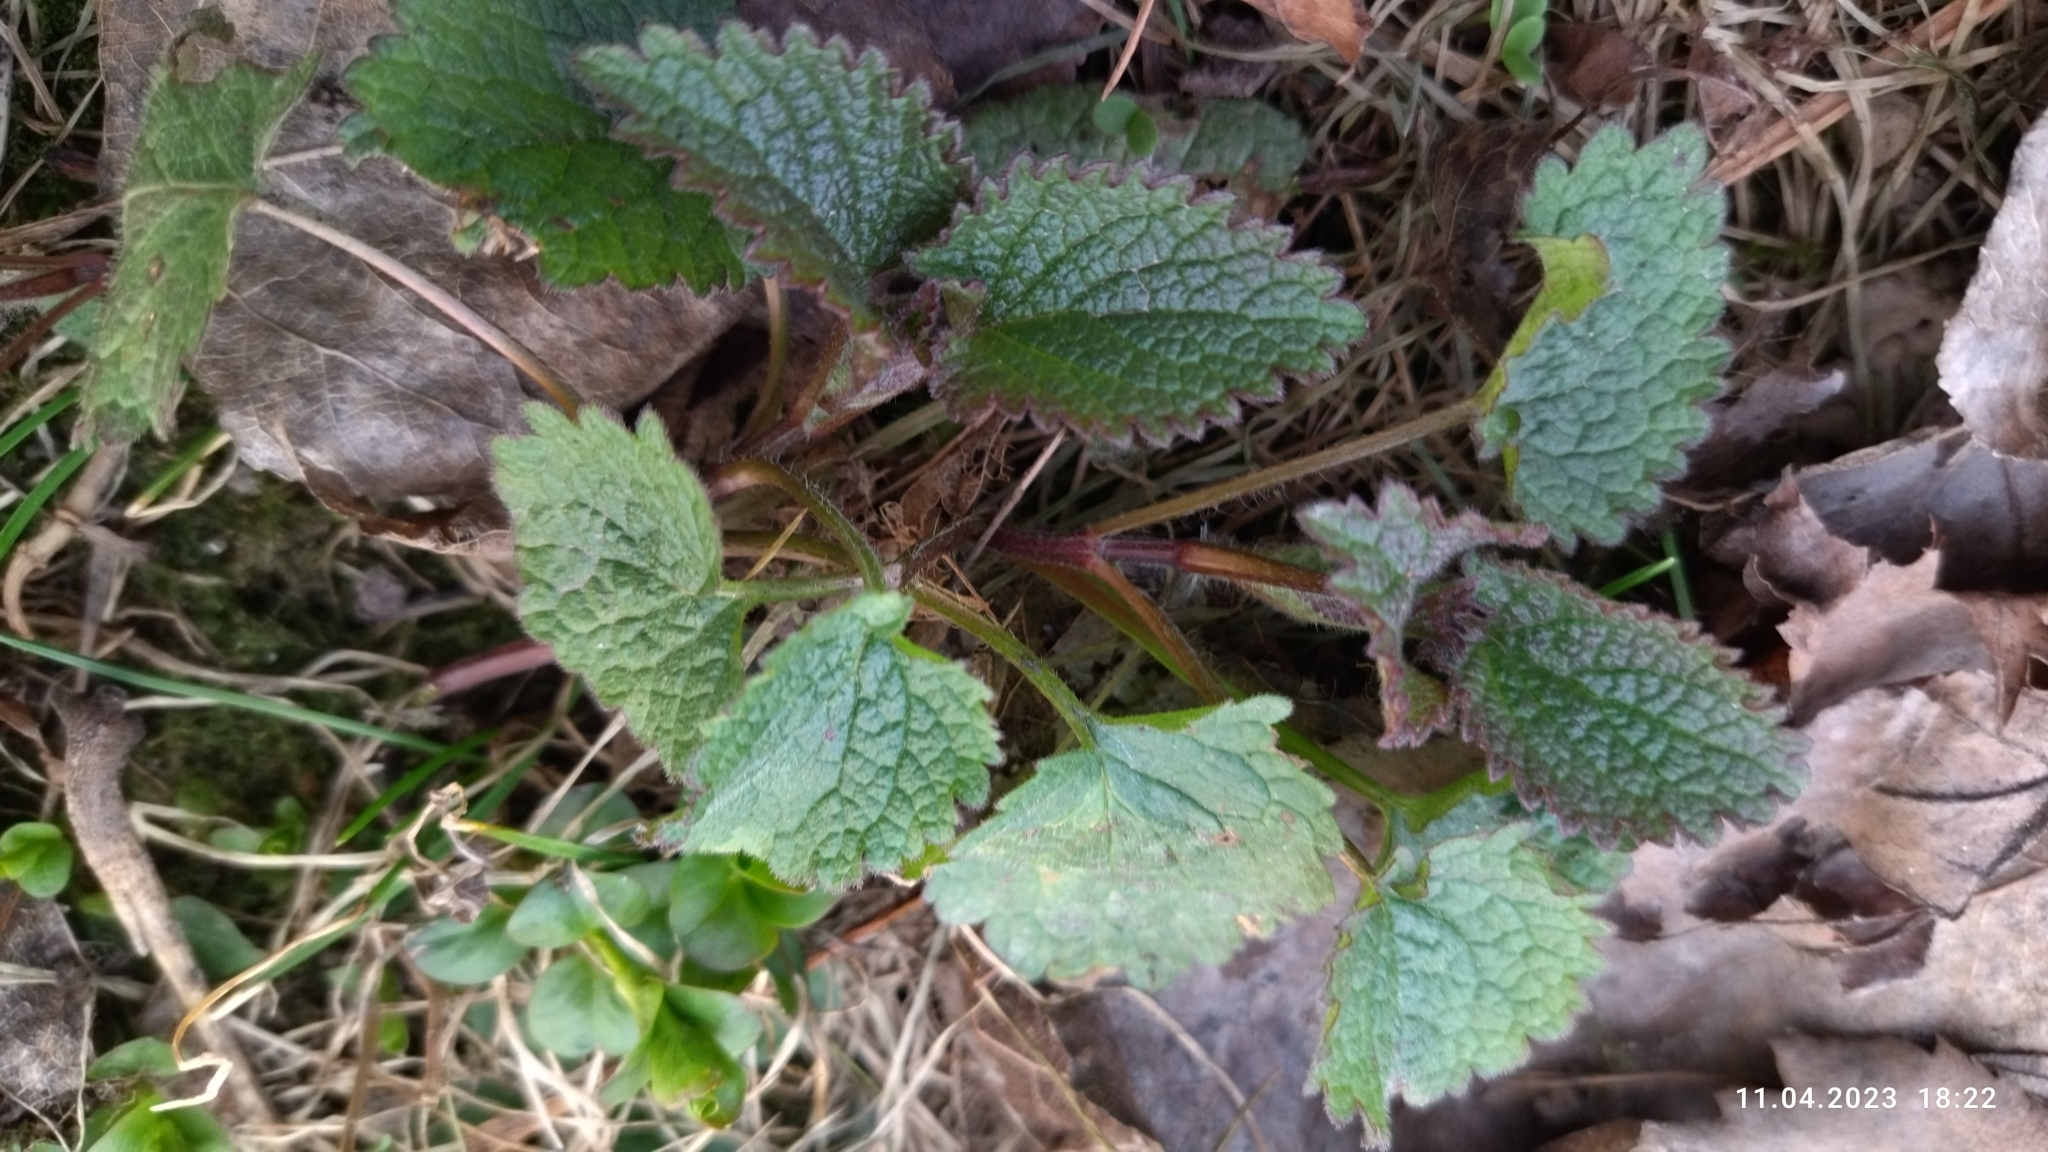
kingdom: Plantae
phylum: Tracheophyta
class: Magnoliopsida
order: Lamiales
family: Lamiaceae
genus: Lamium
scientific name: Lamium album
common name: White dead-nettle
